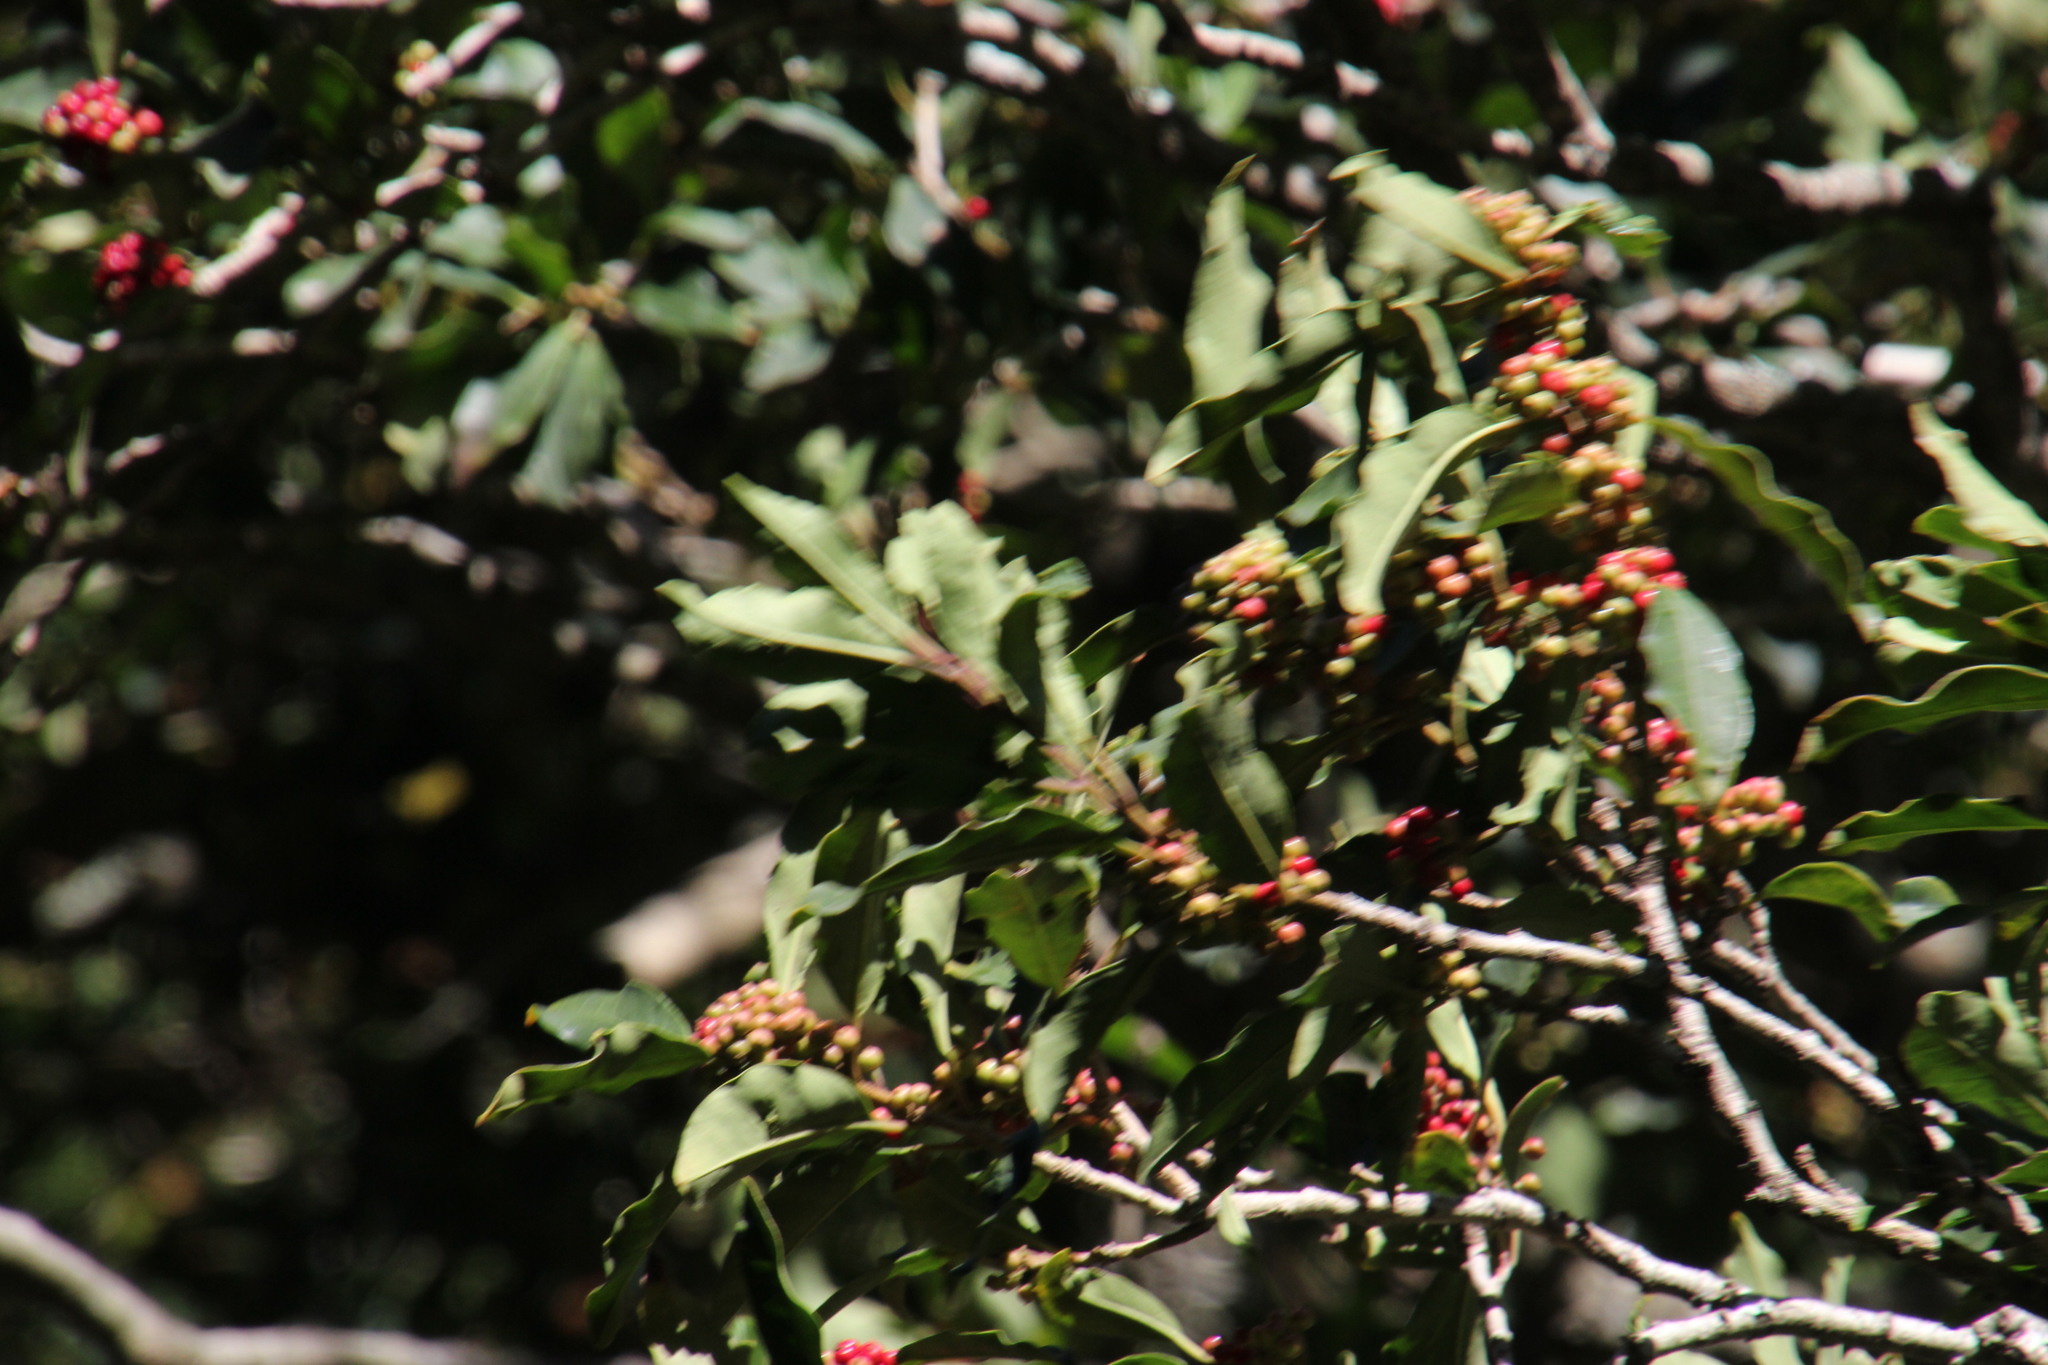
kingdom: Plantae
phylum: Tracheophyta
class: Magnoliopsida
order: Aquifoliales
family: Aquifoliaceae
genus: Ilex
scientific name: Ilex mitis
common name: African holly
